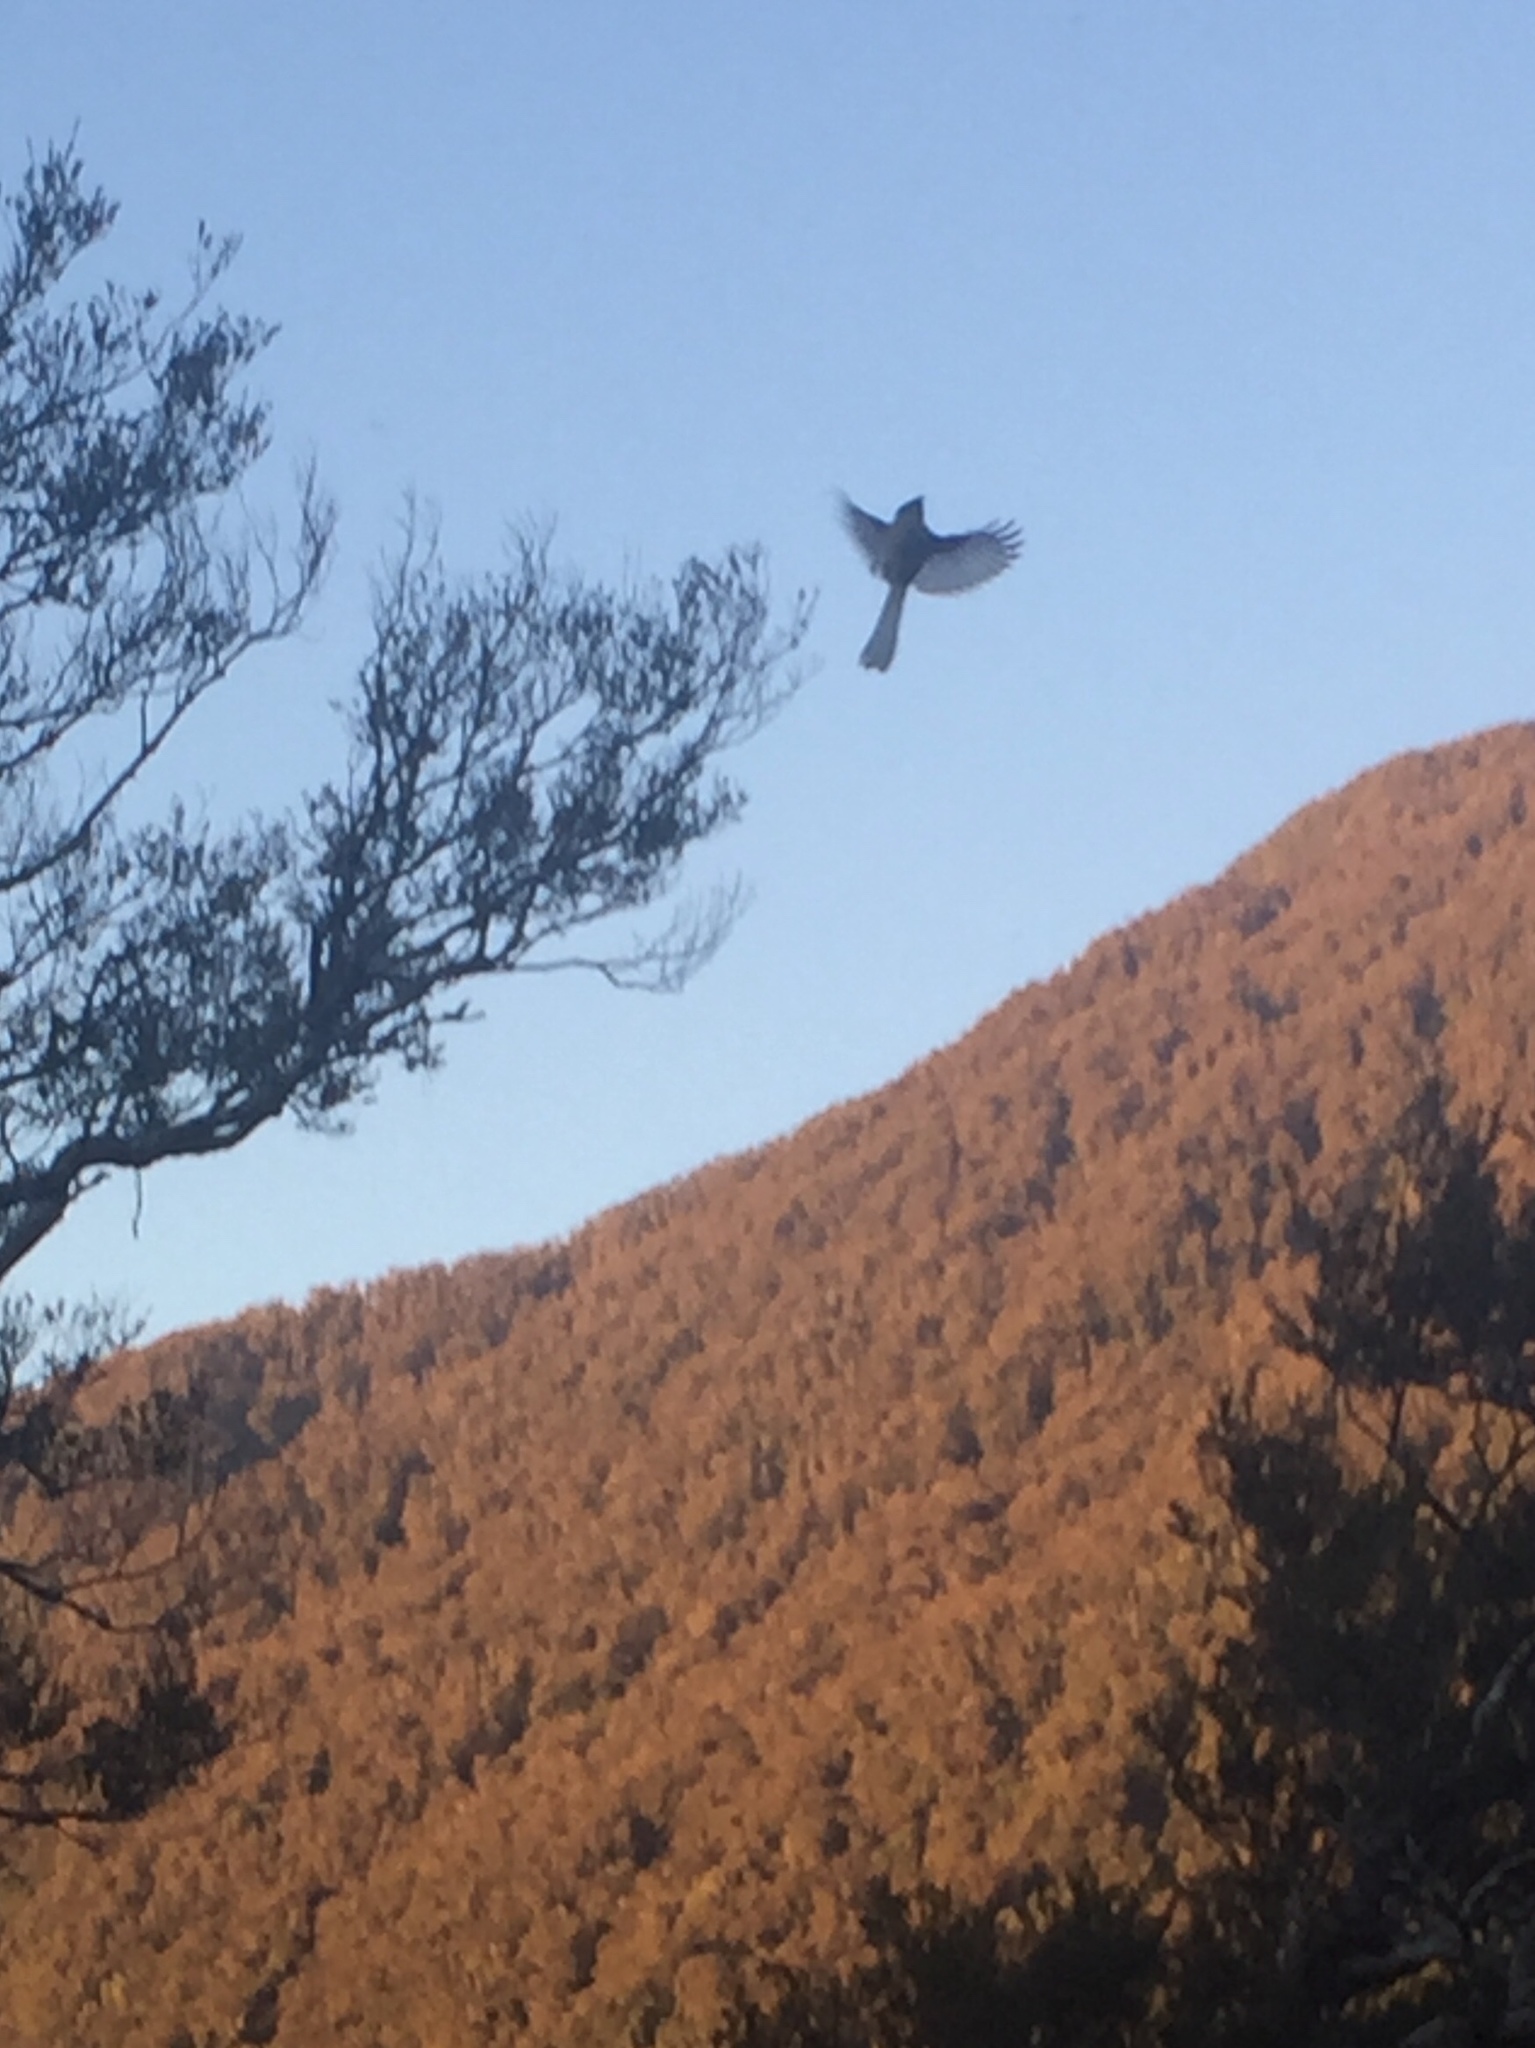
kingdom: Animalia
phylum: Chordata
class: Aves
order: Passeriformes
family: Rhipiduridae
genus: Rhipidura
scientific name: Rhipidura fuliginosa
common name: New zealand fantail
